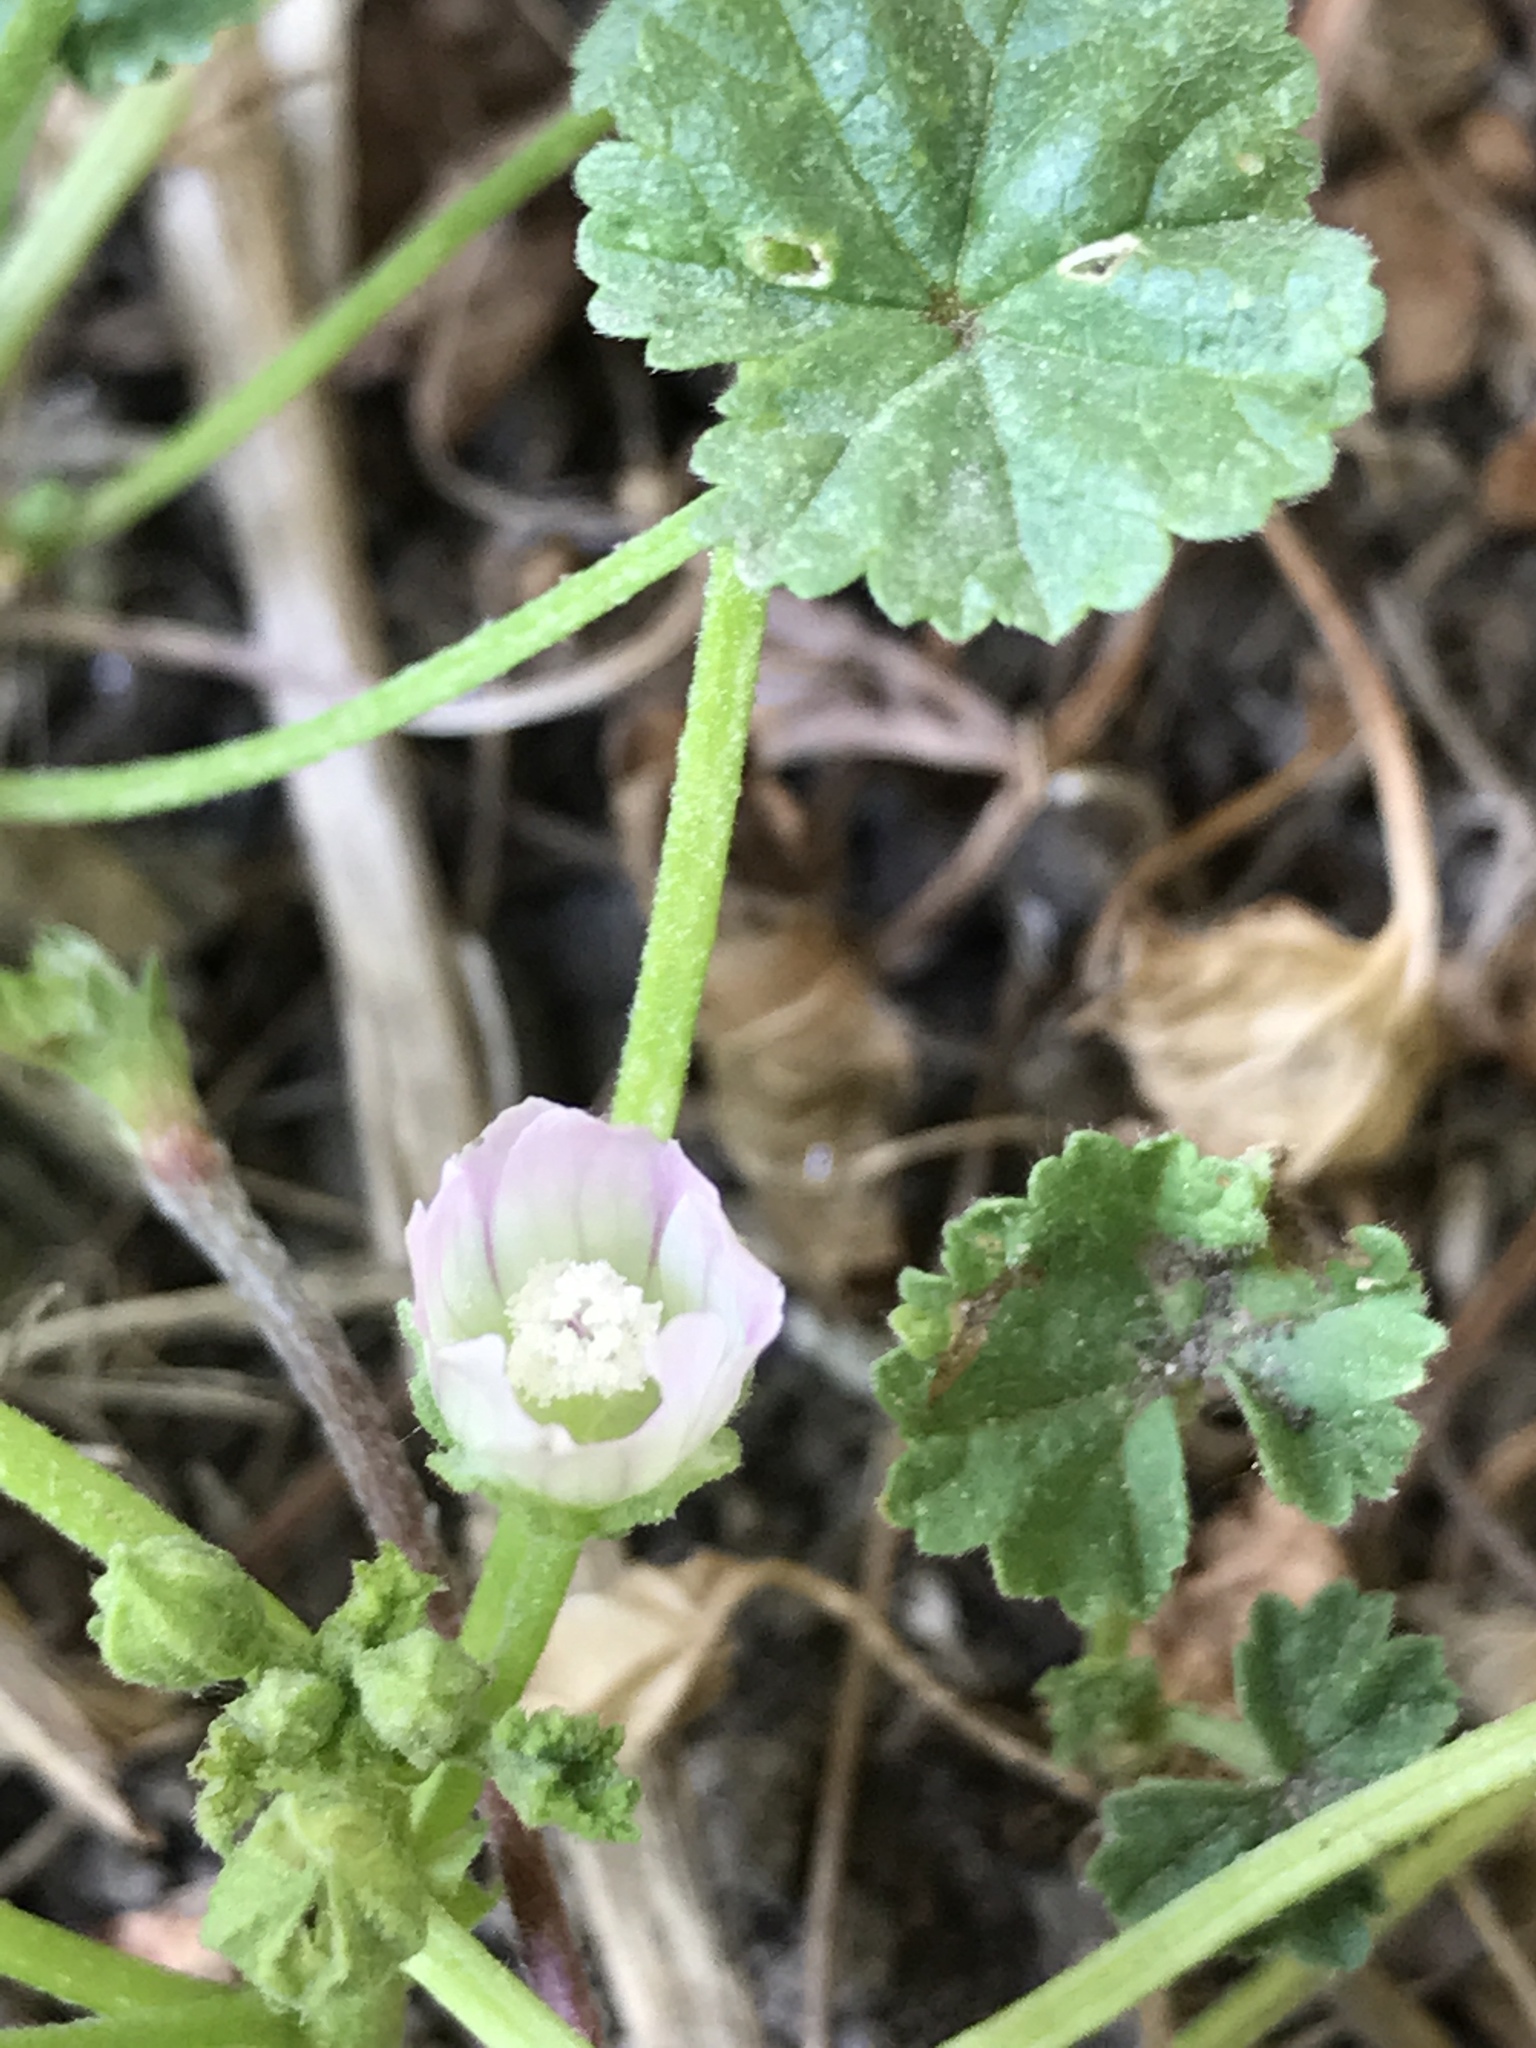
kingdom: Plantae
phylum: Tracheophyta
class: Magnoliopsida
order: Malvales
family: Malvaceae
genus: Malva
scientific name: Malva neglecta
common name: Common mallow
